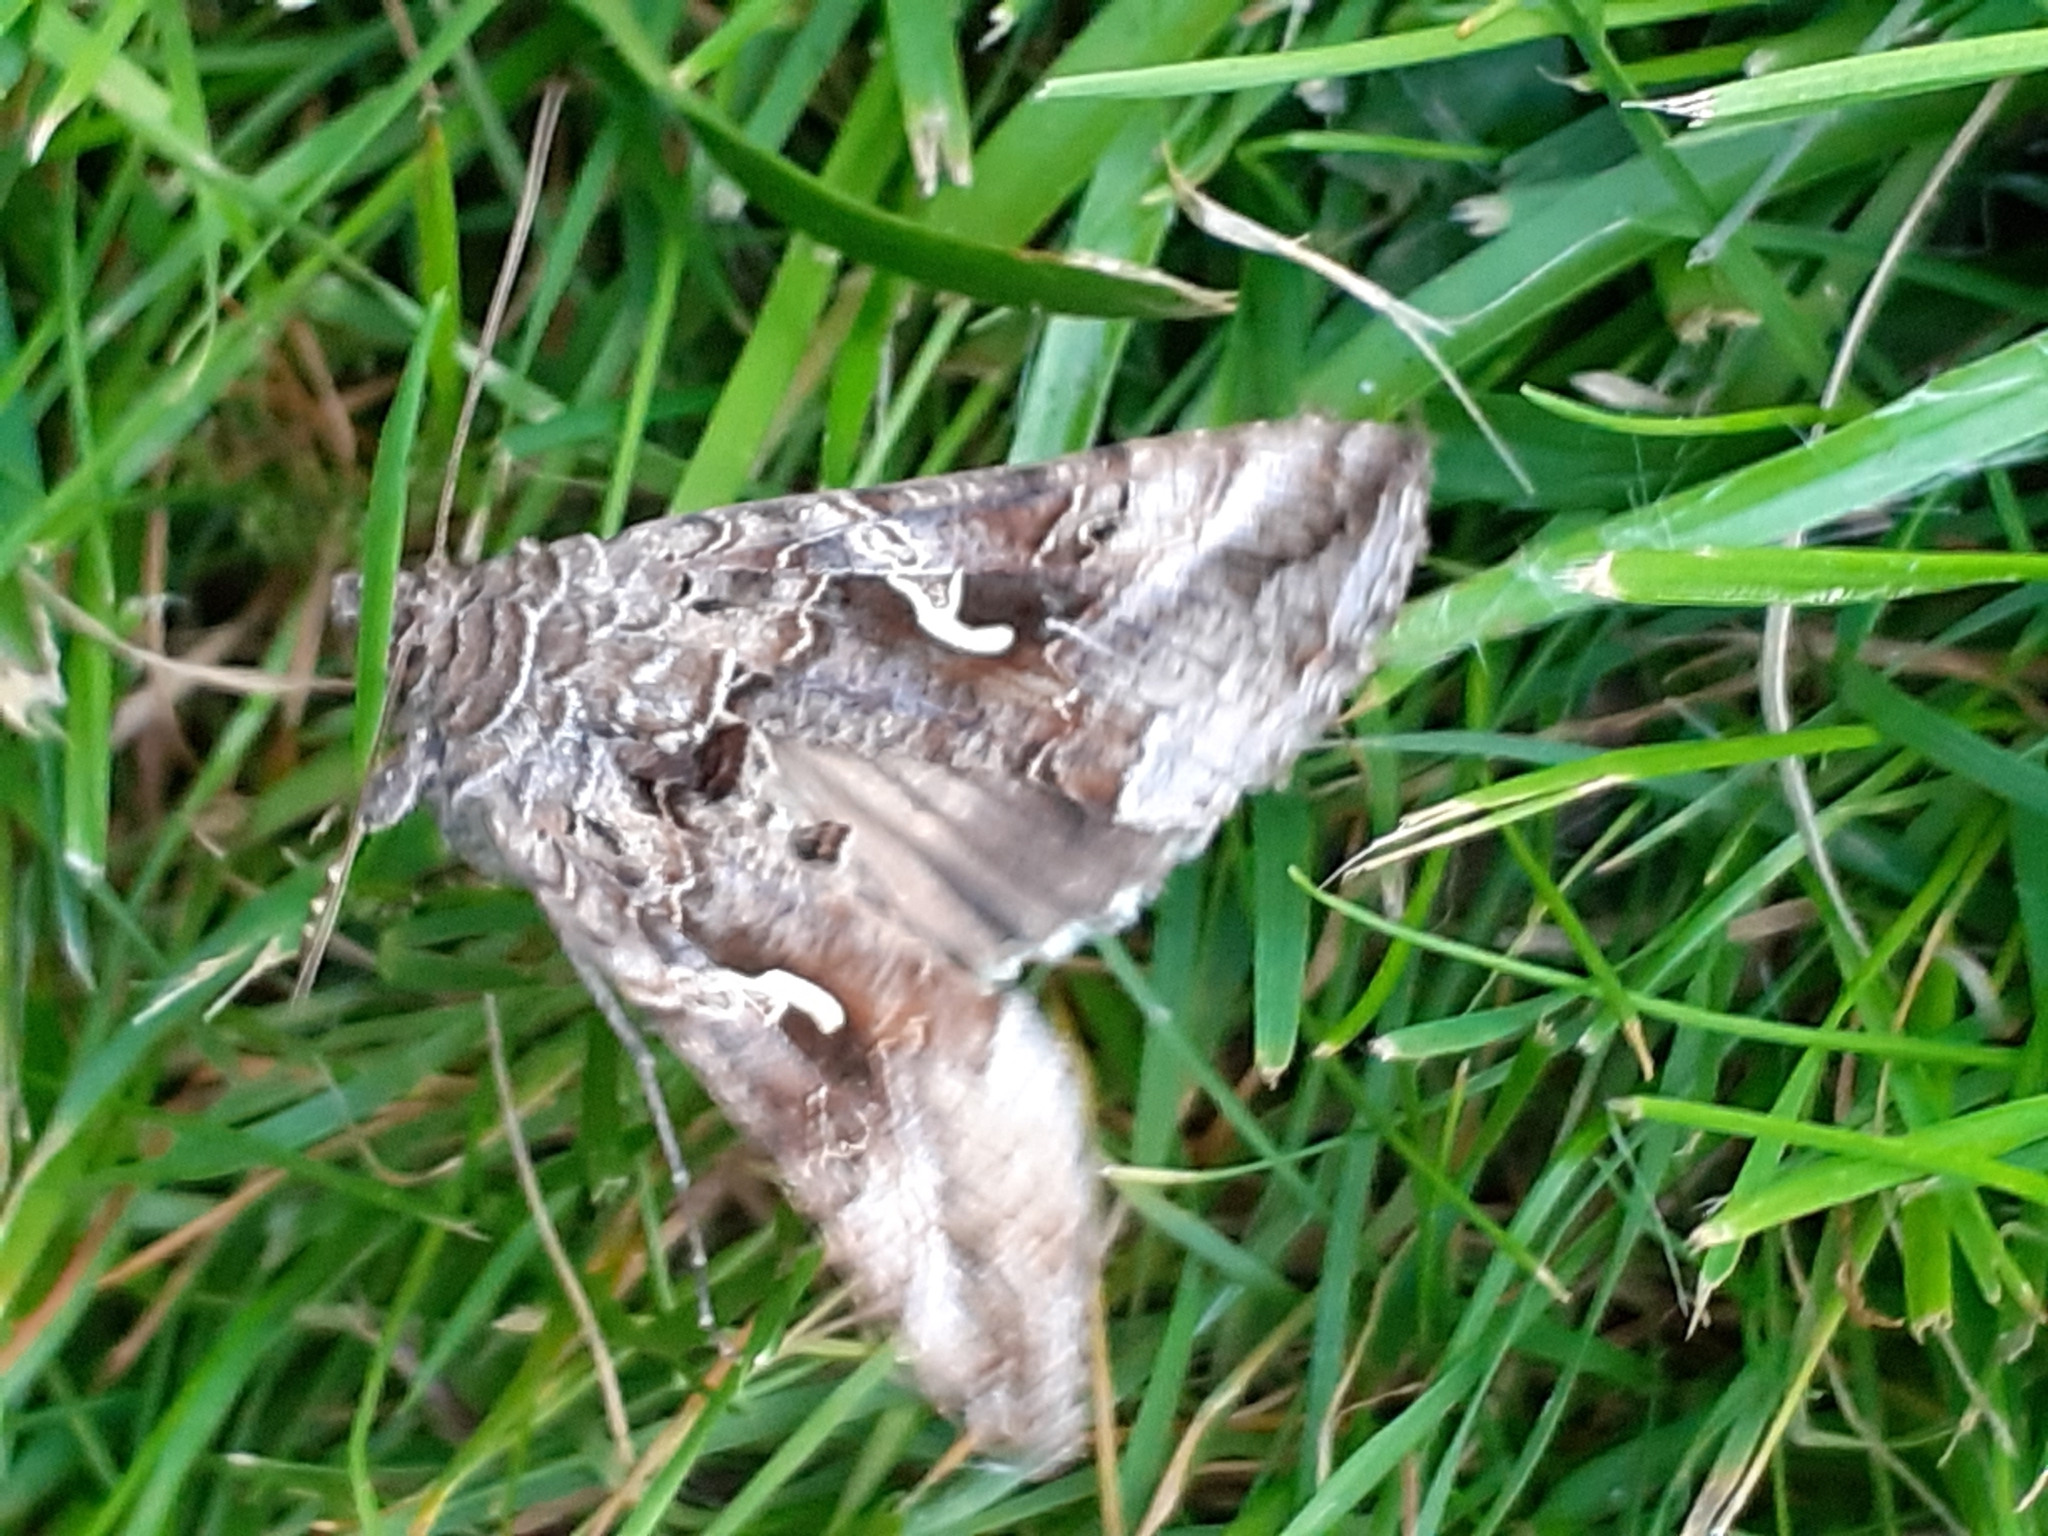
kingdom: Animalia
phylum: Arthropoda
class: Insecta
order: Lepidoptera
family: Noctuidae
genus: Autographa
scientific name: Autographa gamma
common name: Silver y
